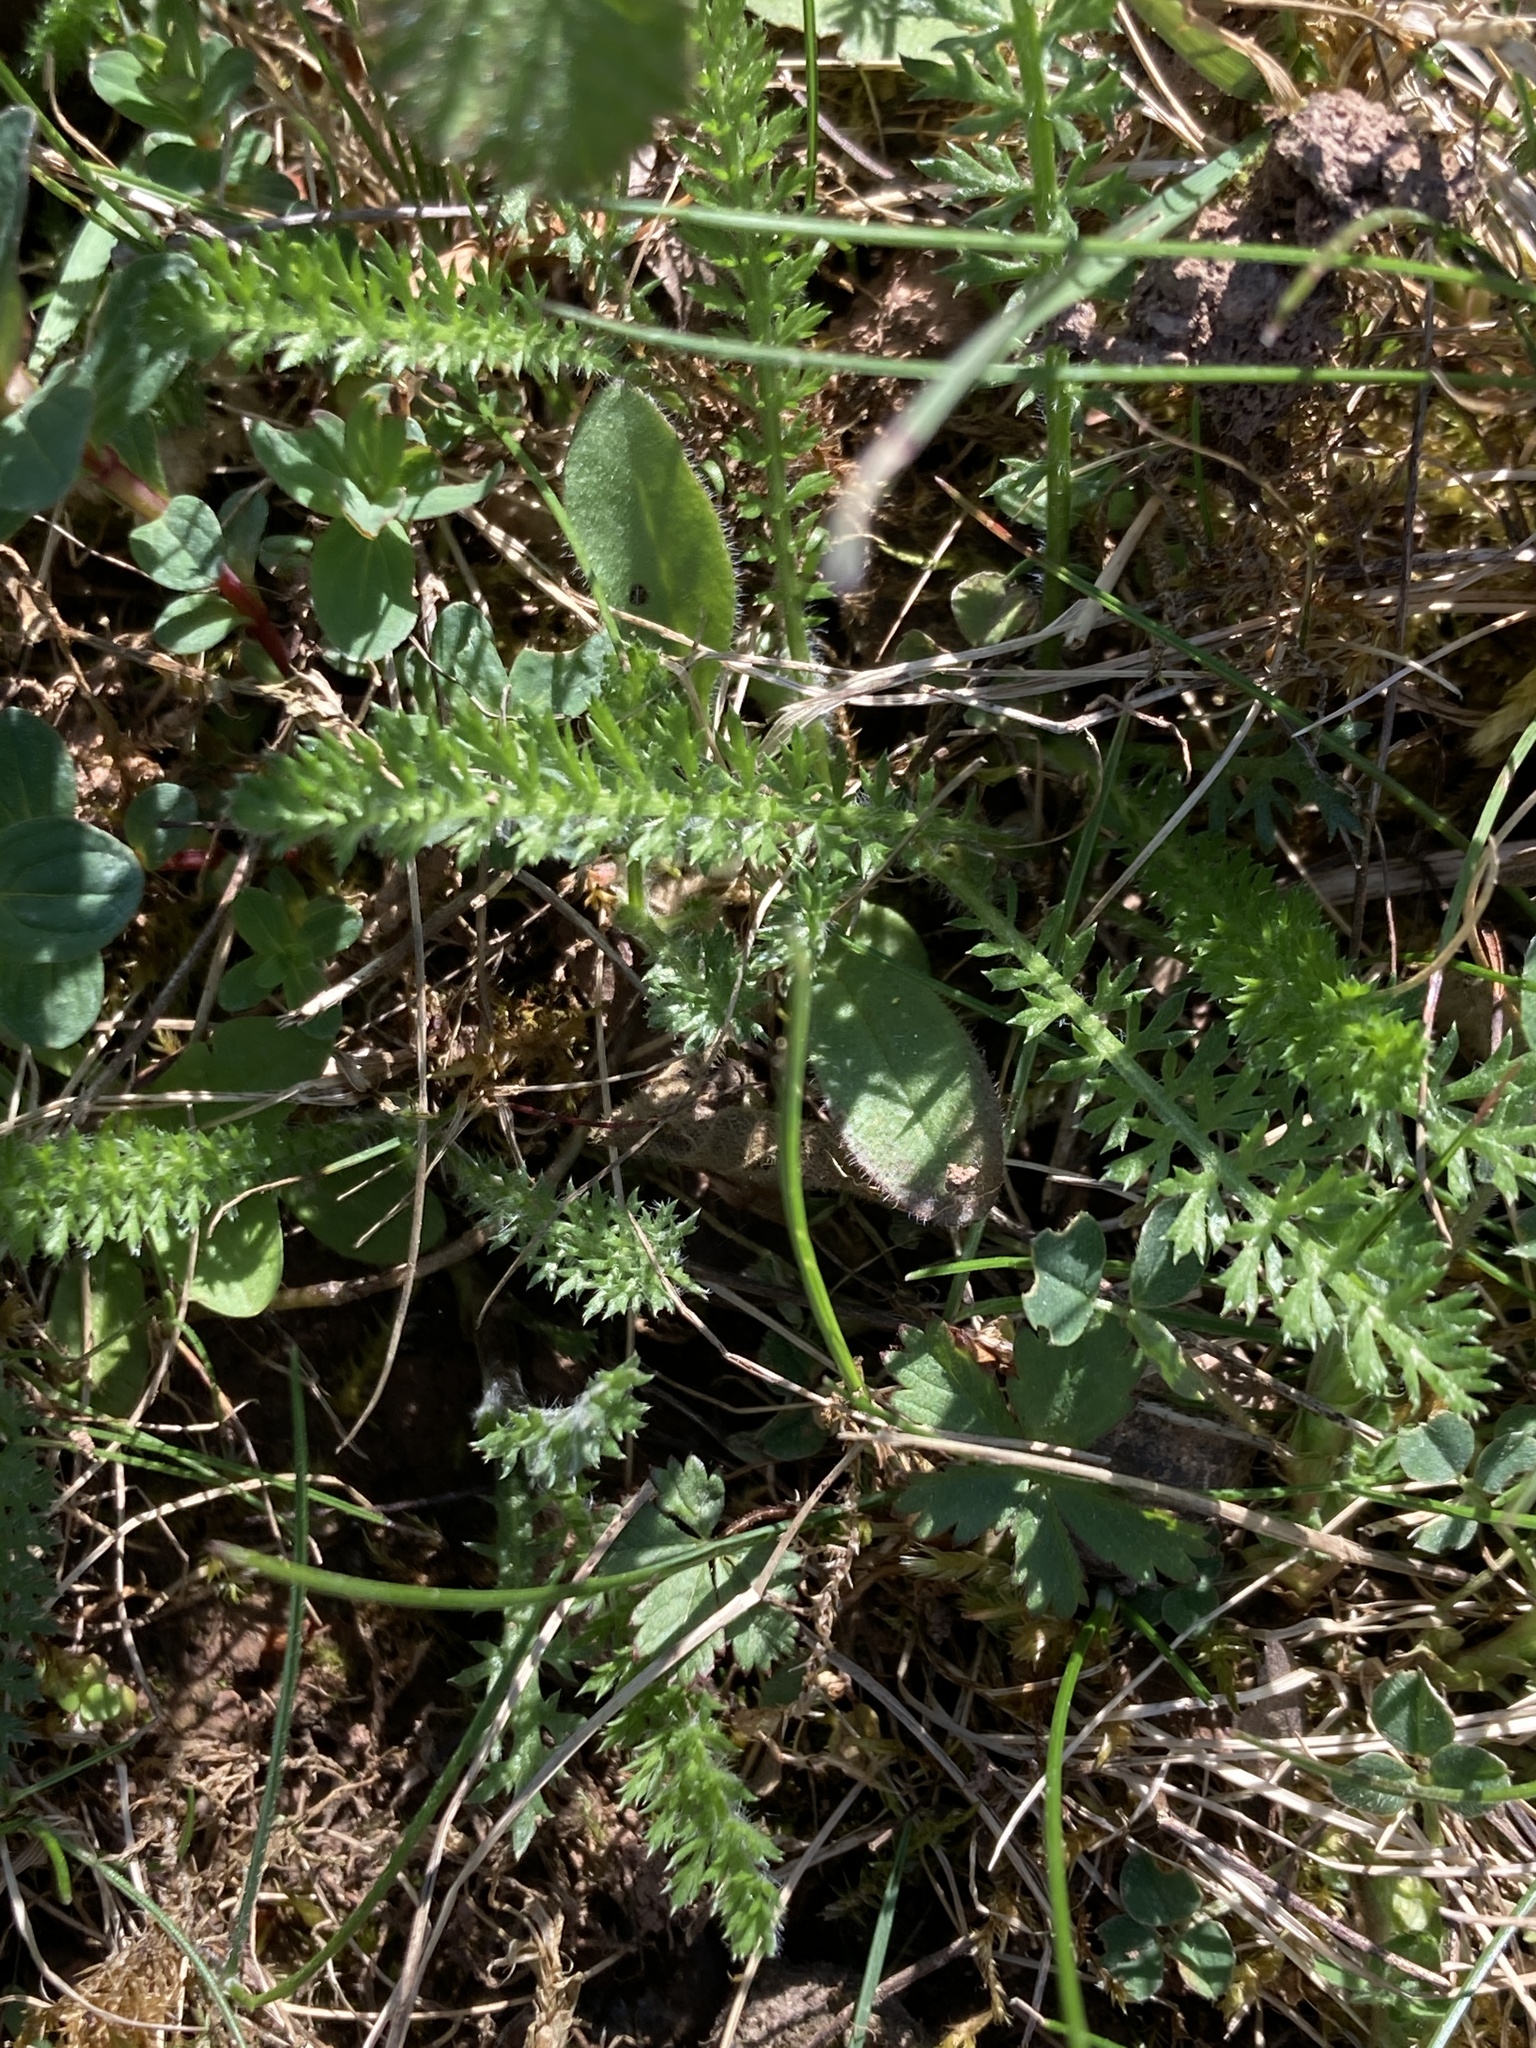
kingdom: Plantae
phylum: Tracheophyta
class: Magnoliopsida
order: Asterales
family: Asteraceae
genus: Achillea
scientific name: Achillea millefolium
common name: Yarrow
